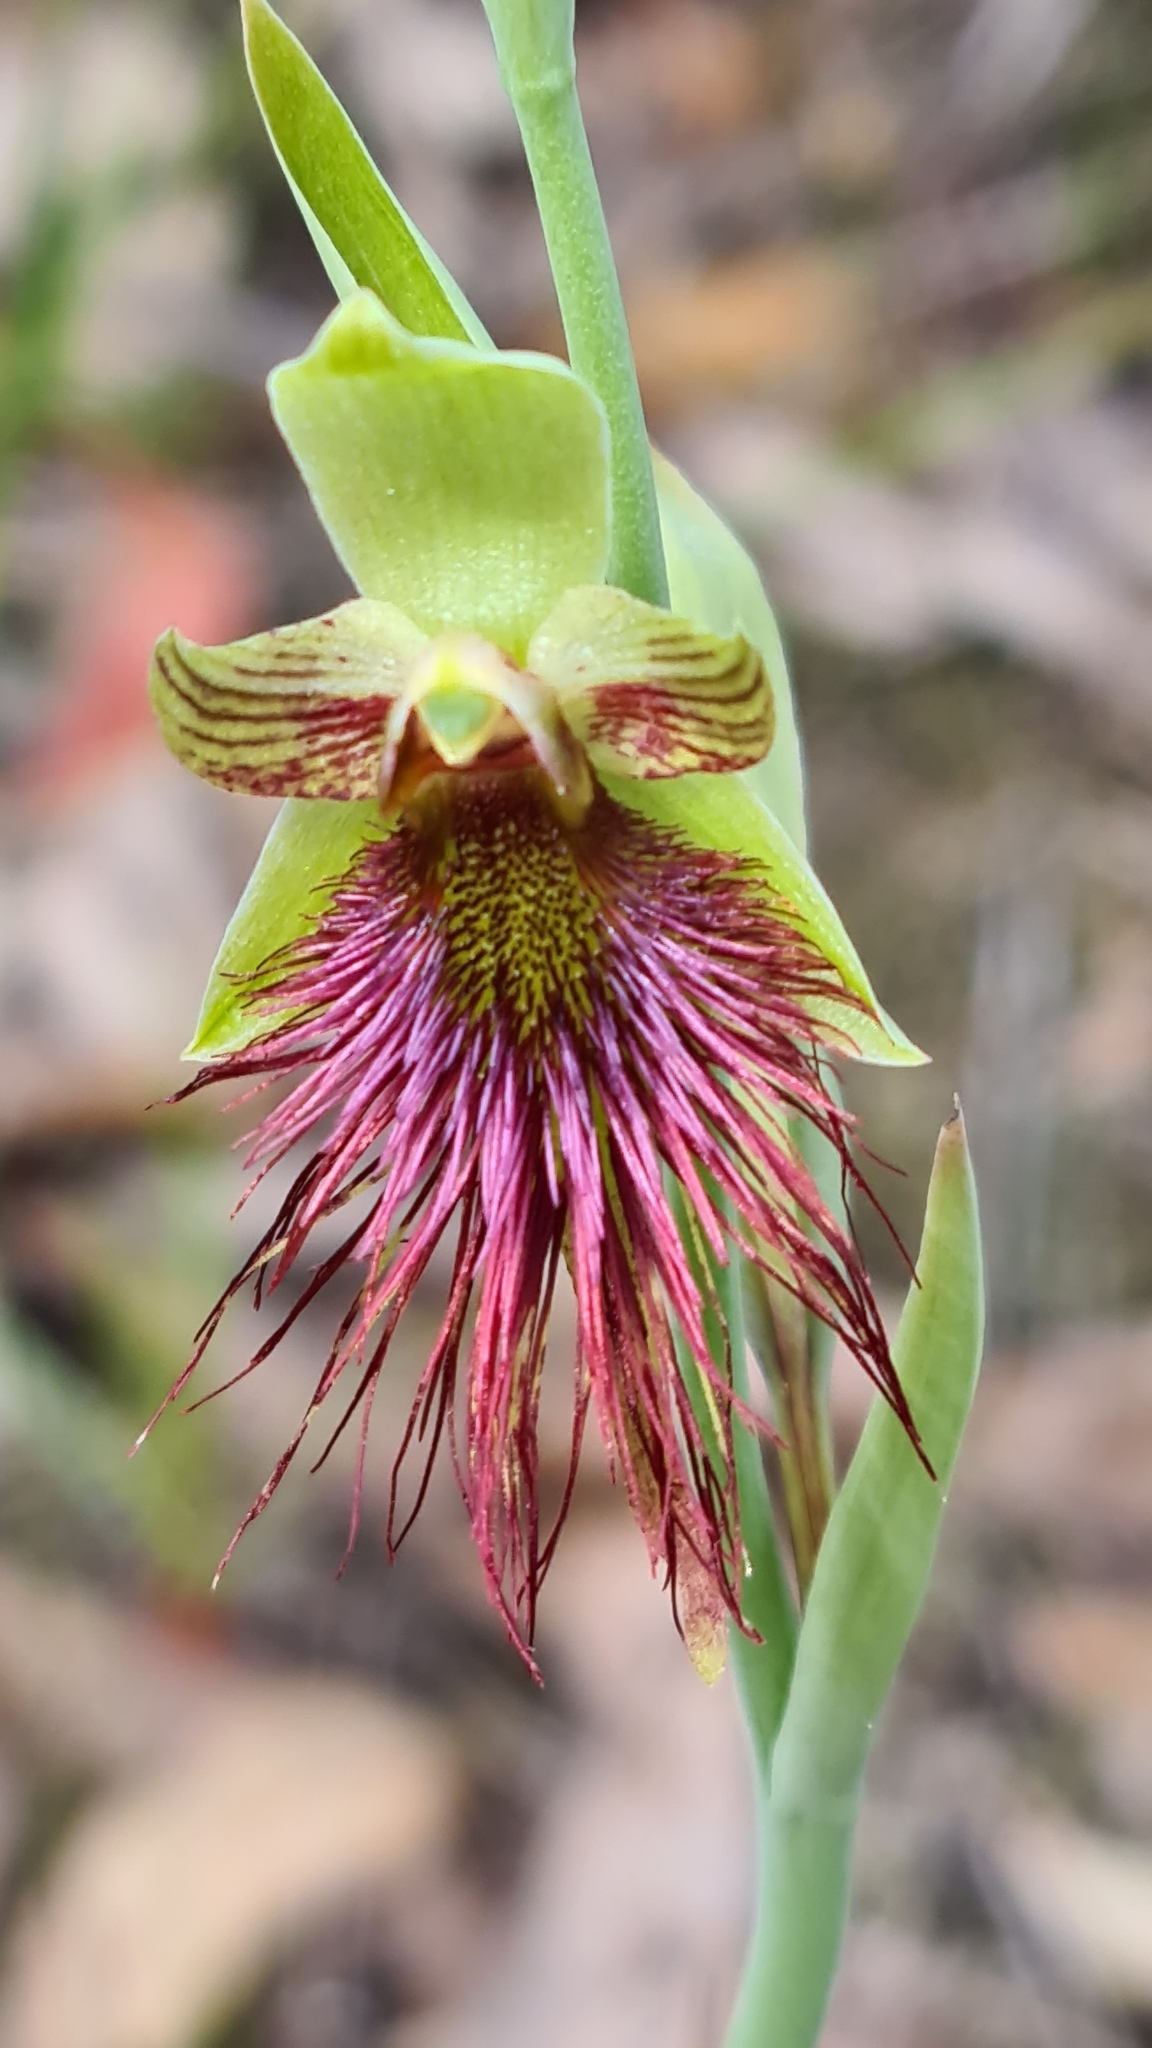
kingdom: Plantae
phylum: Tracheophyta
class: Liliopsida
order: Asparagales
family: Orchidaceae
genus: Calochilus
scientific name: Calochilus paludosus
